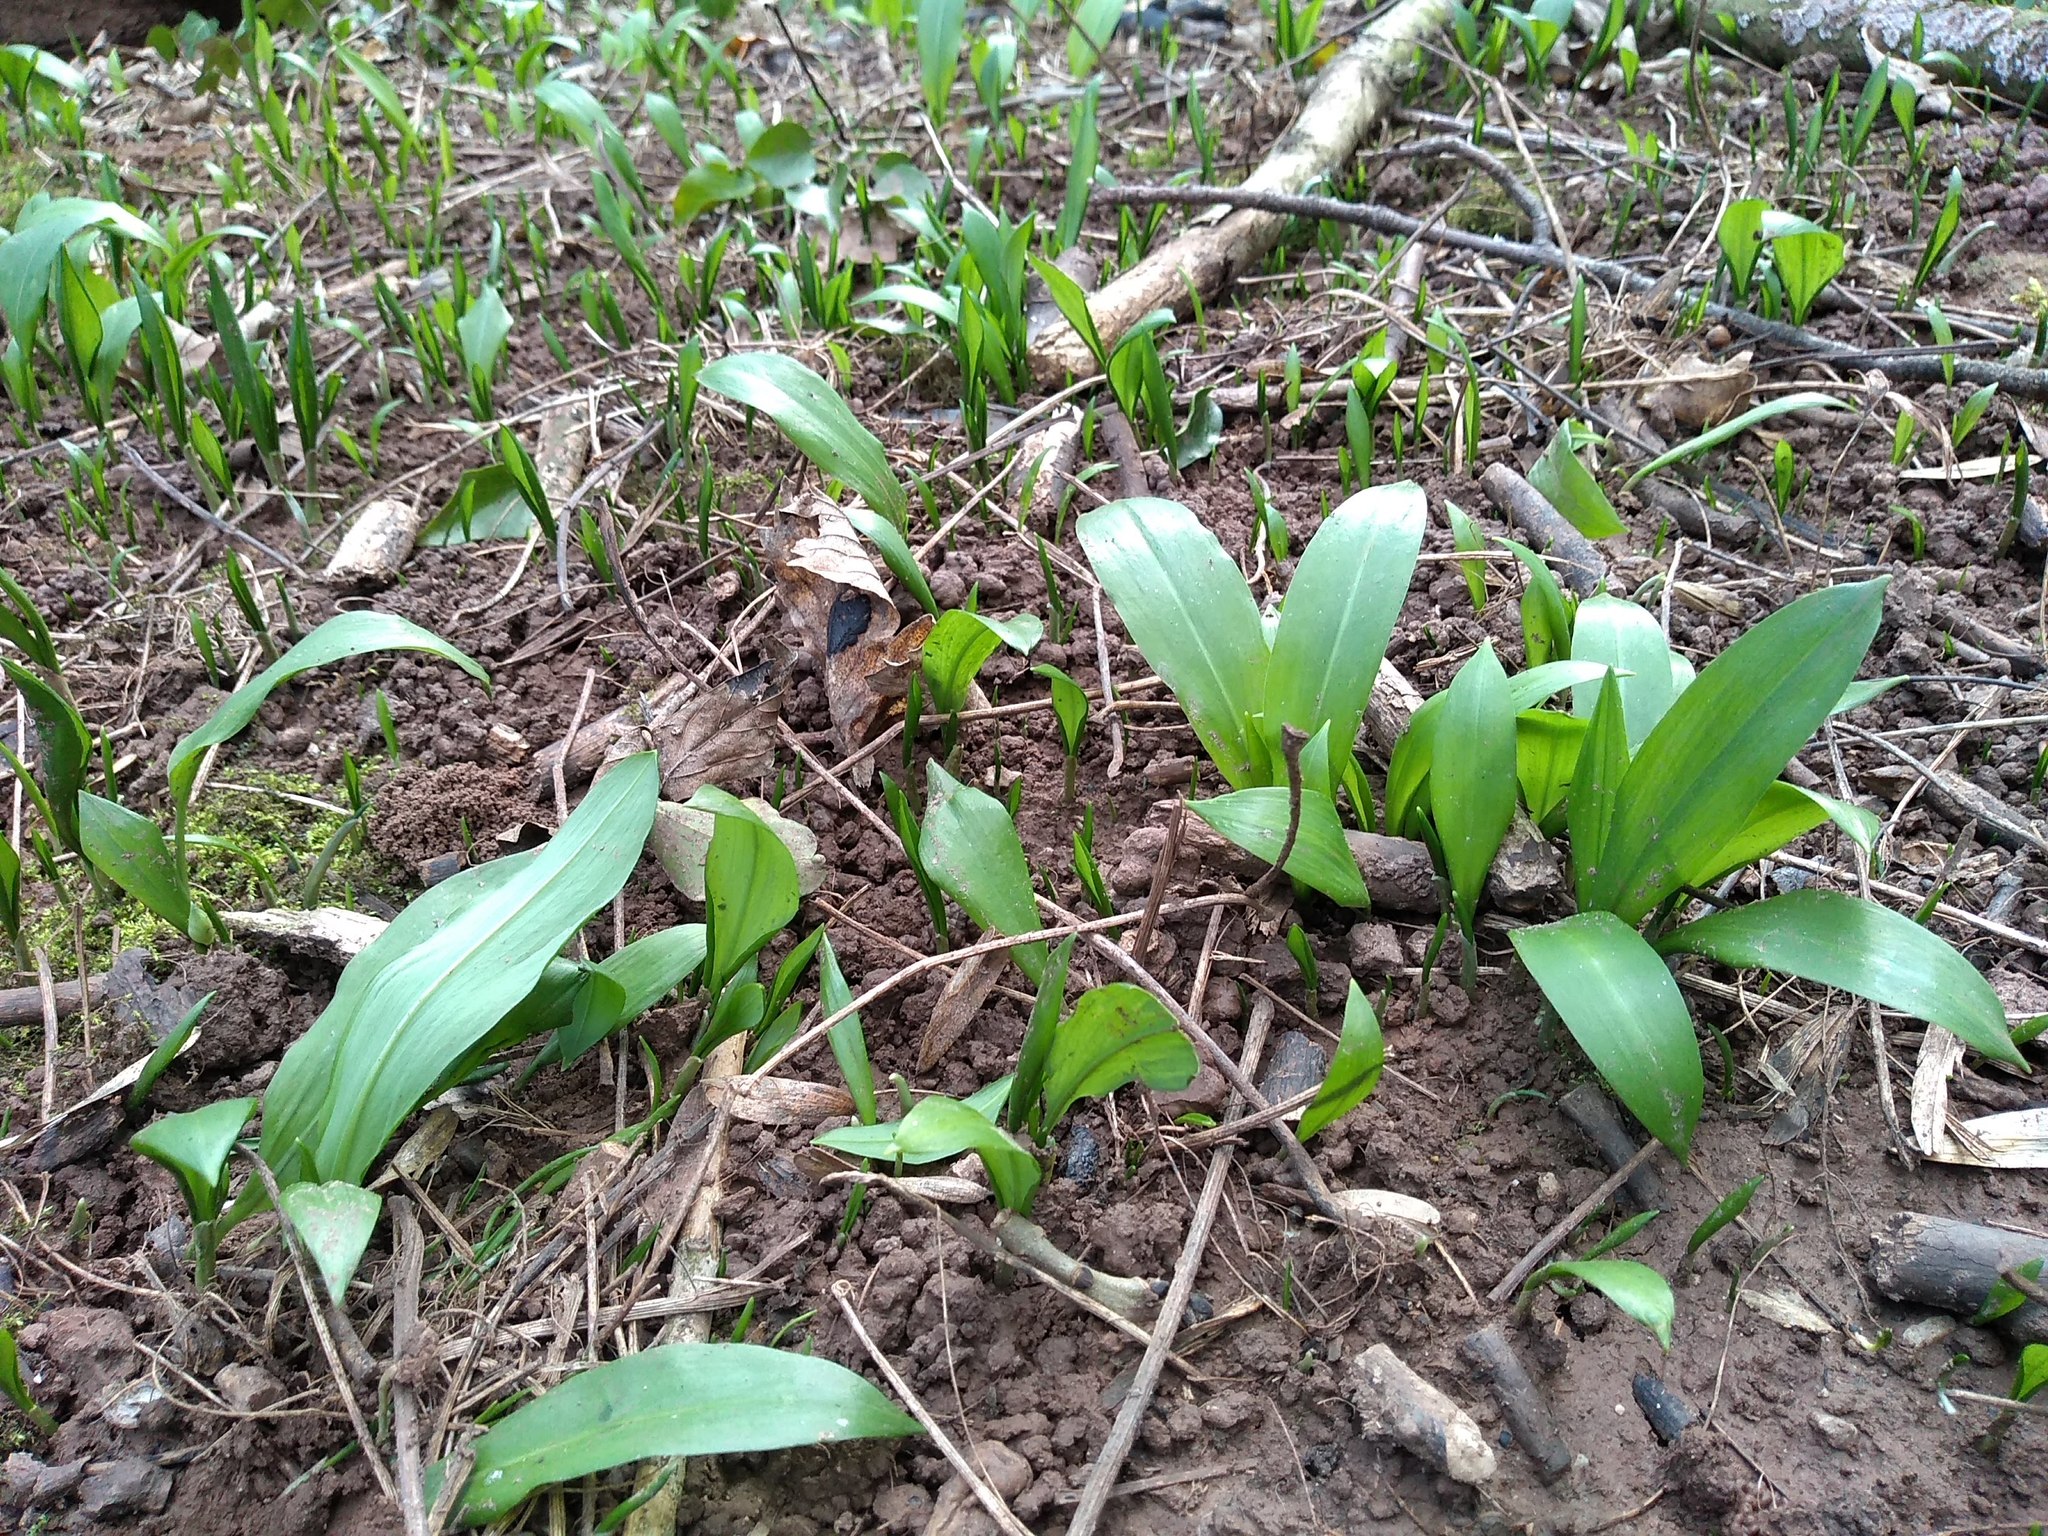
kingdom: Plantae
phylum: Tracheophyta
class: Liliopsida
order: Asparagales
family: Amaryllidaceae
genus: Allium
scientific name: Allium ursinum
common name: Ramsons
